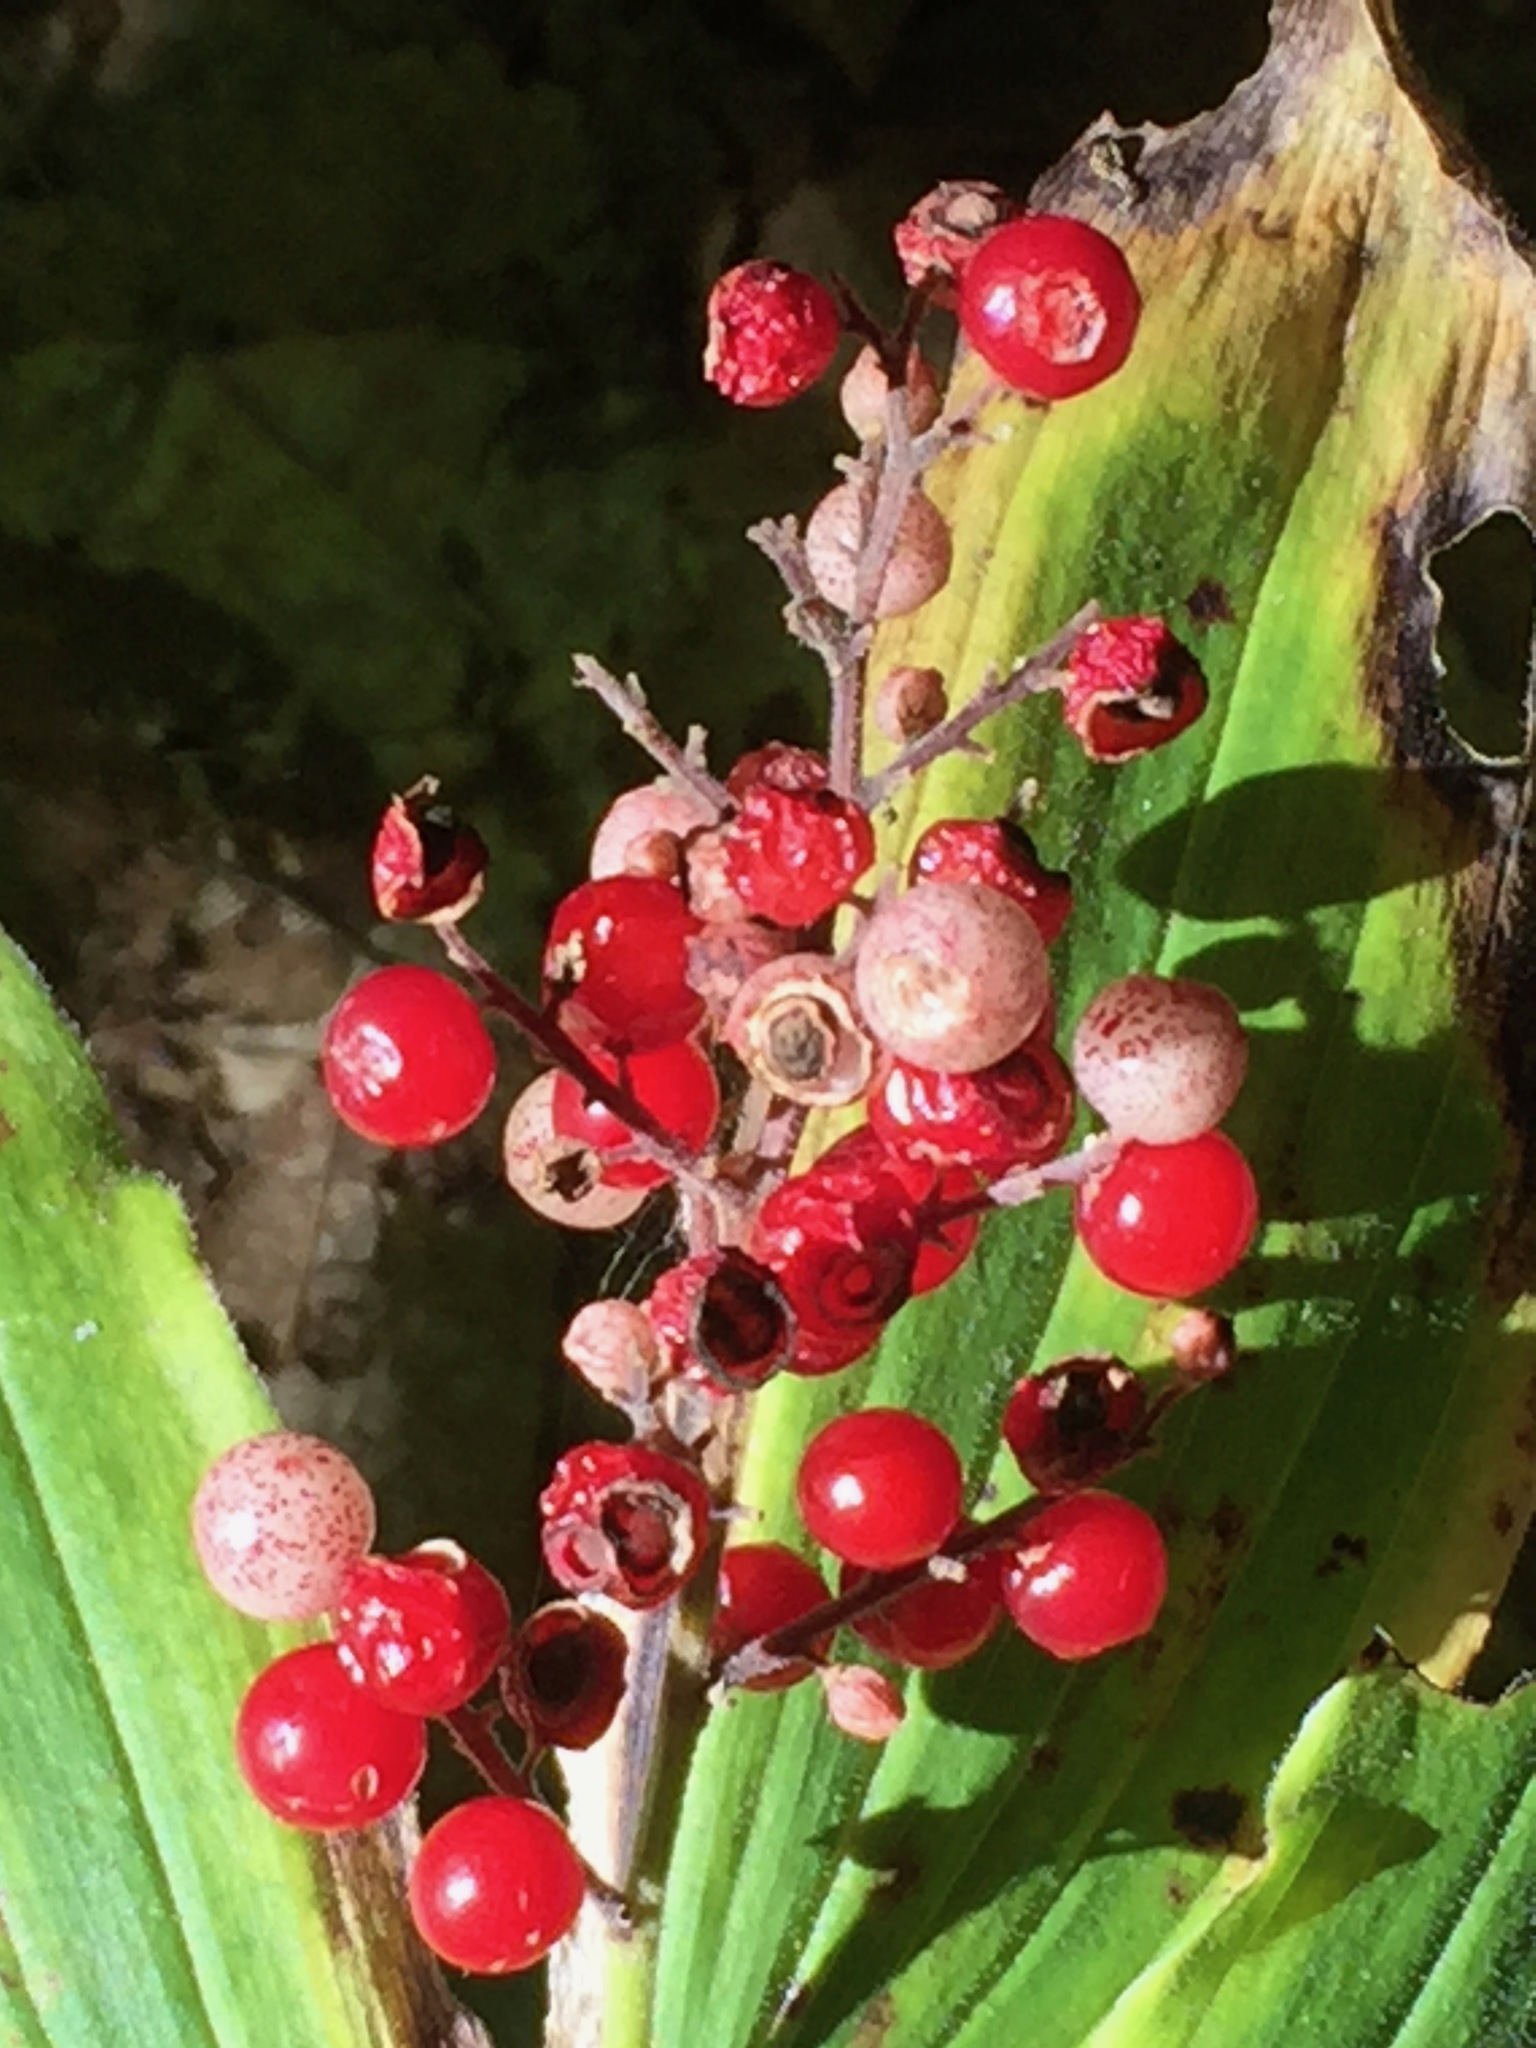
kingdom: Plantae
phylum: Tracheophyta
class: Liliopsida
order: Asparagales
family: Asparagaceae
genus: Maianthemum
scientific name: Maianthemum racemosum
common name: False spikenard
